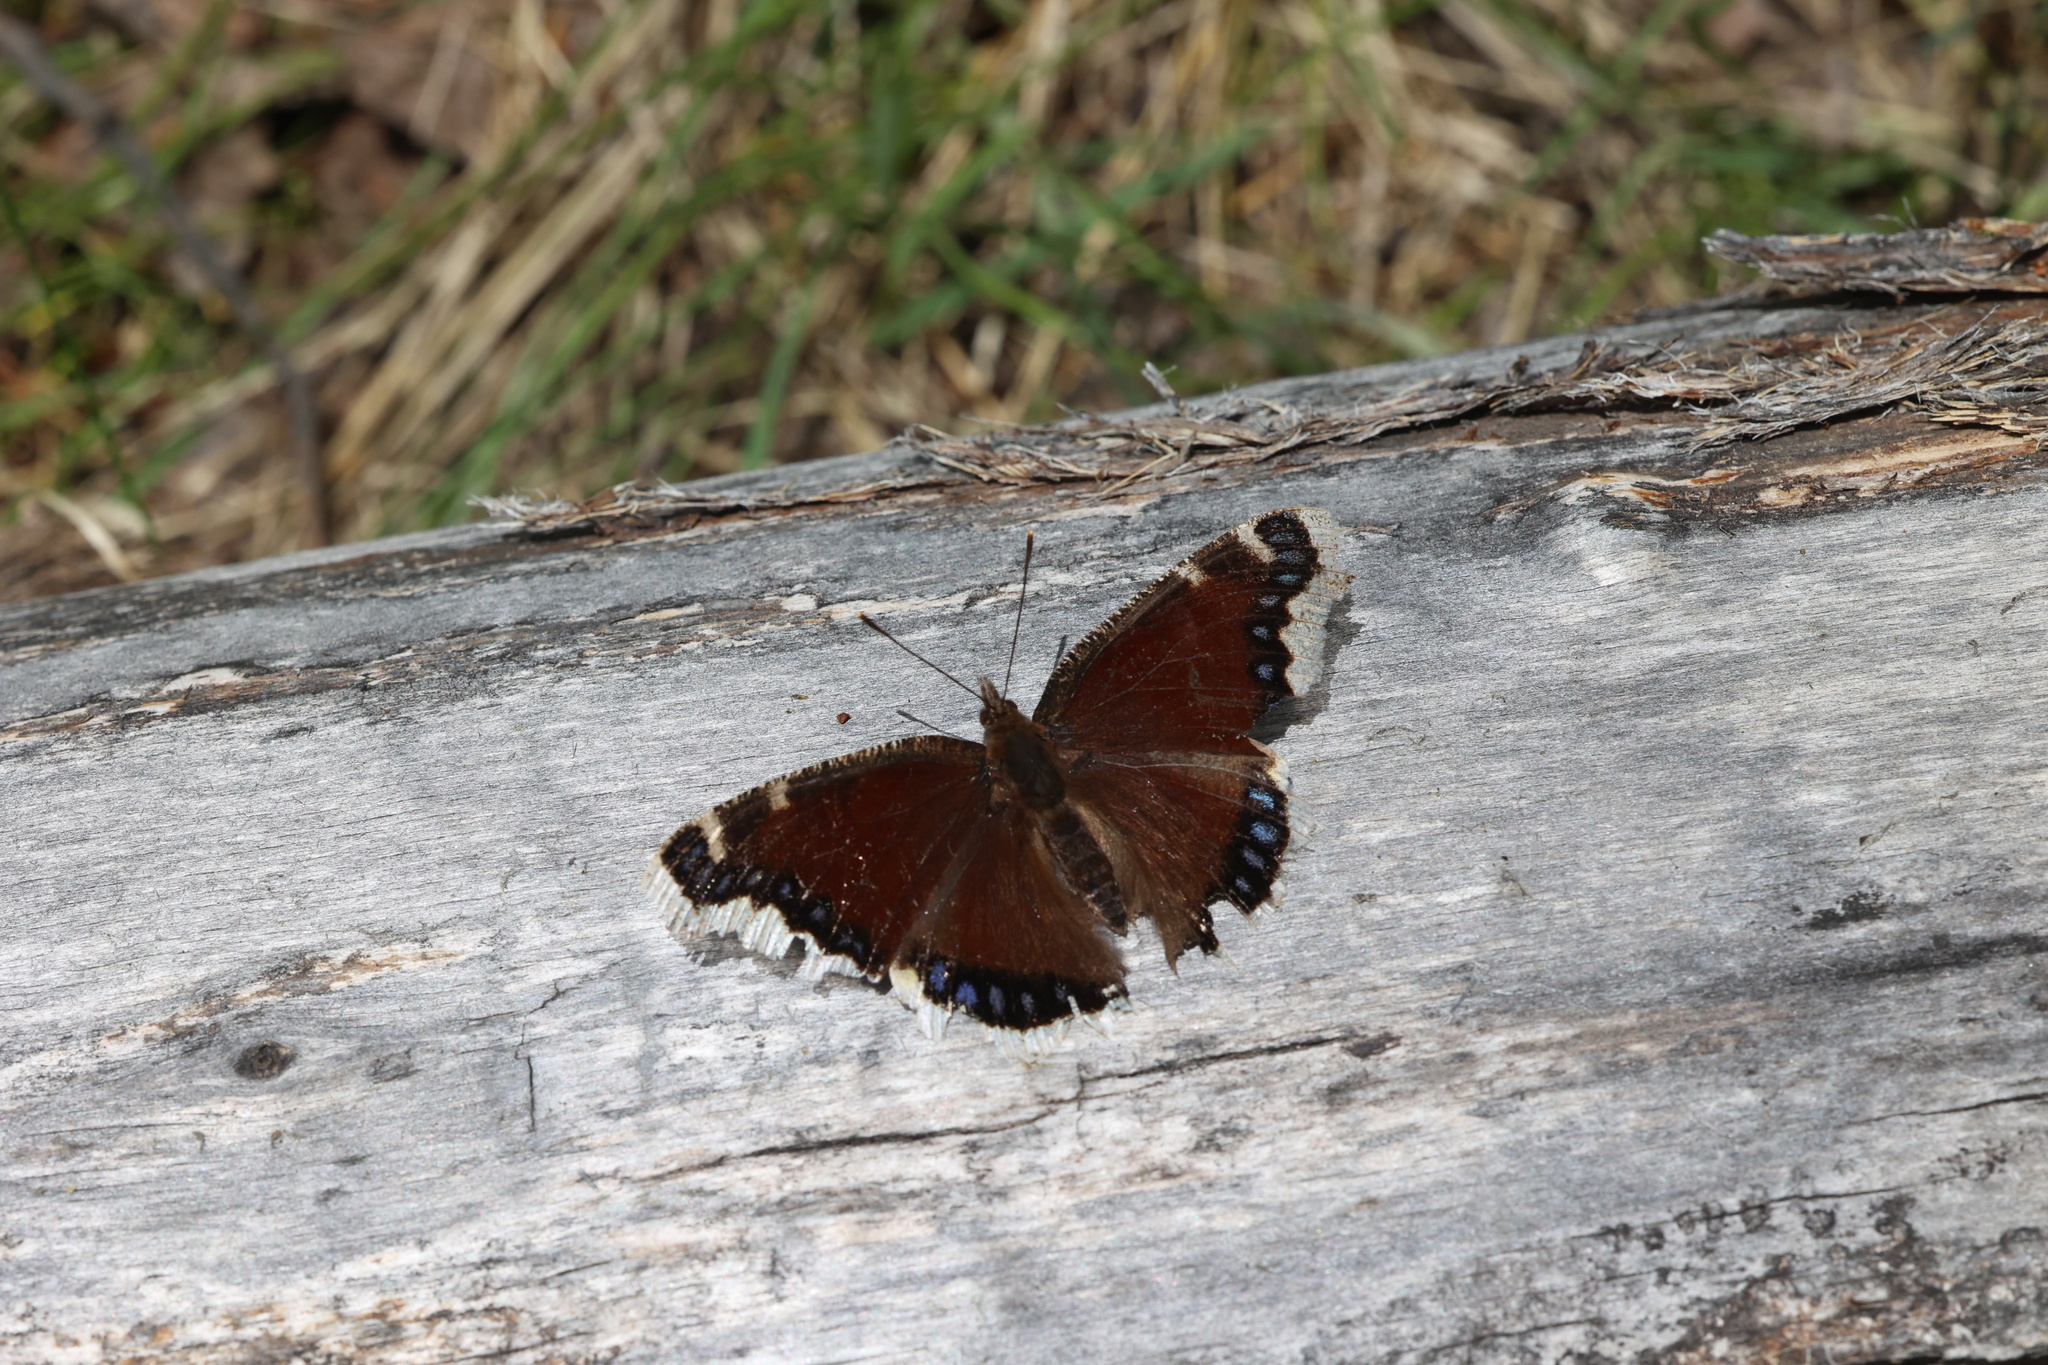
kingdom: Animalia
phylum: Arthropoda
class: Insecta
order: Lepidoptera
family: Nymphalidae
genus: Nymphalis
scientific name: Nymphalis antiopa
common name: Camberwell beauty
